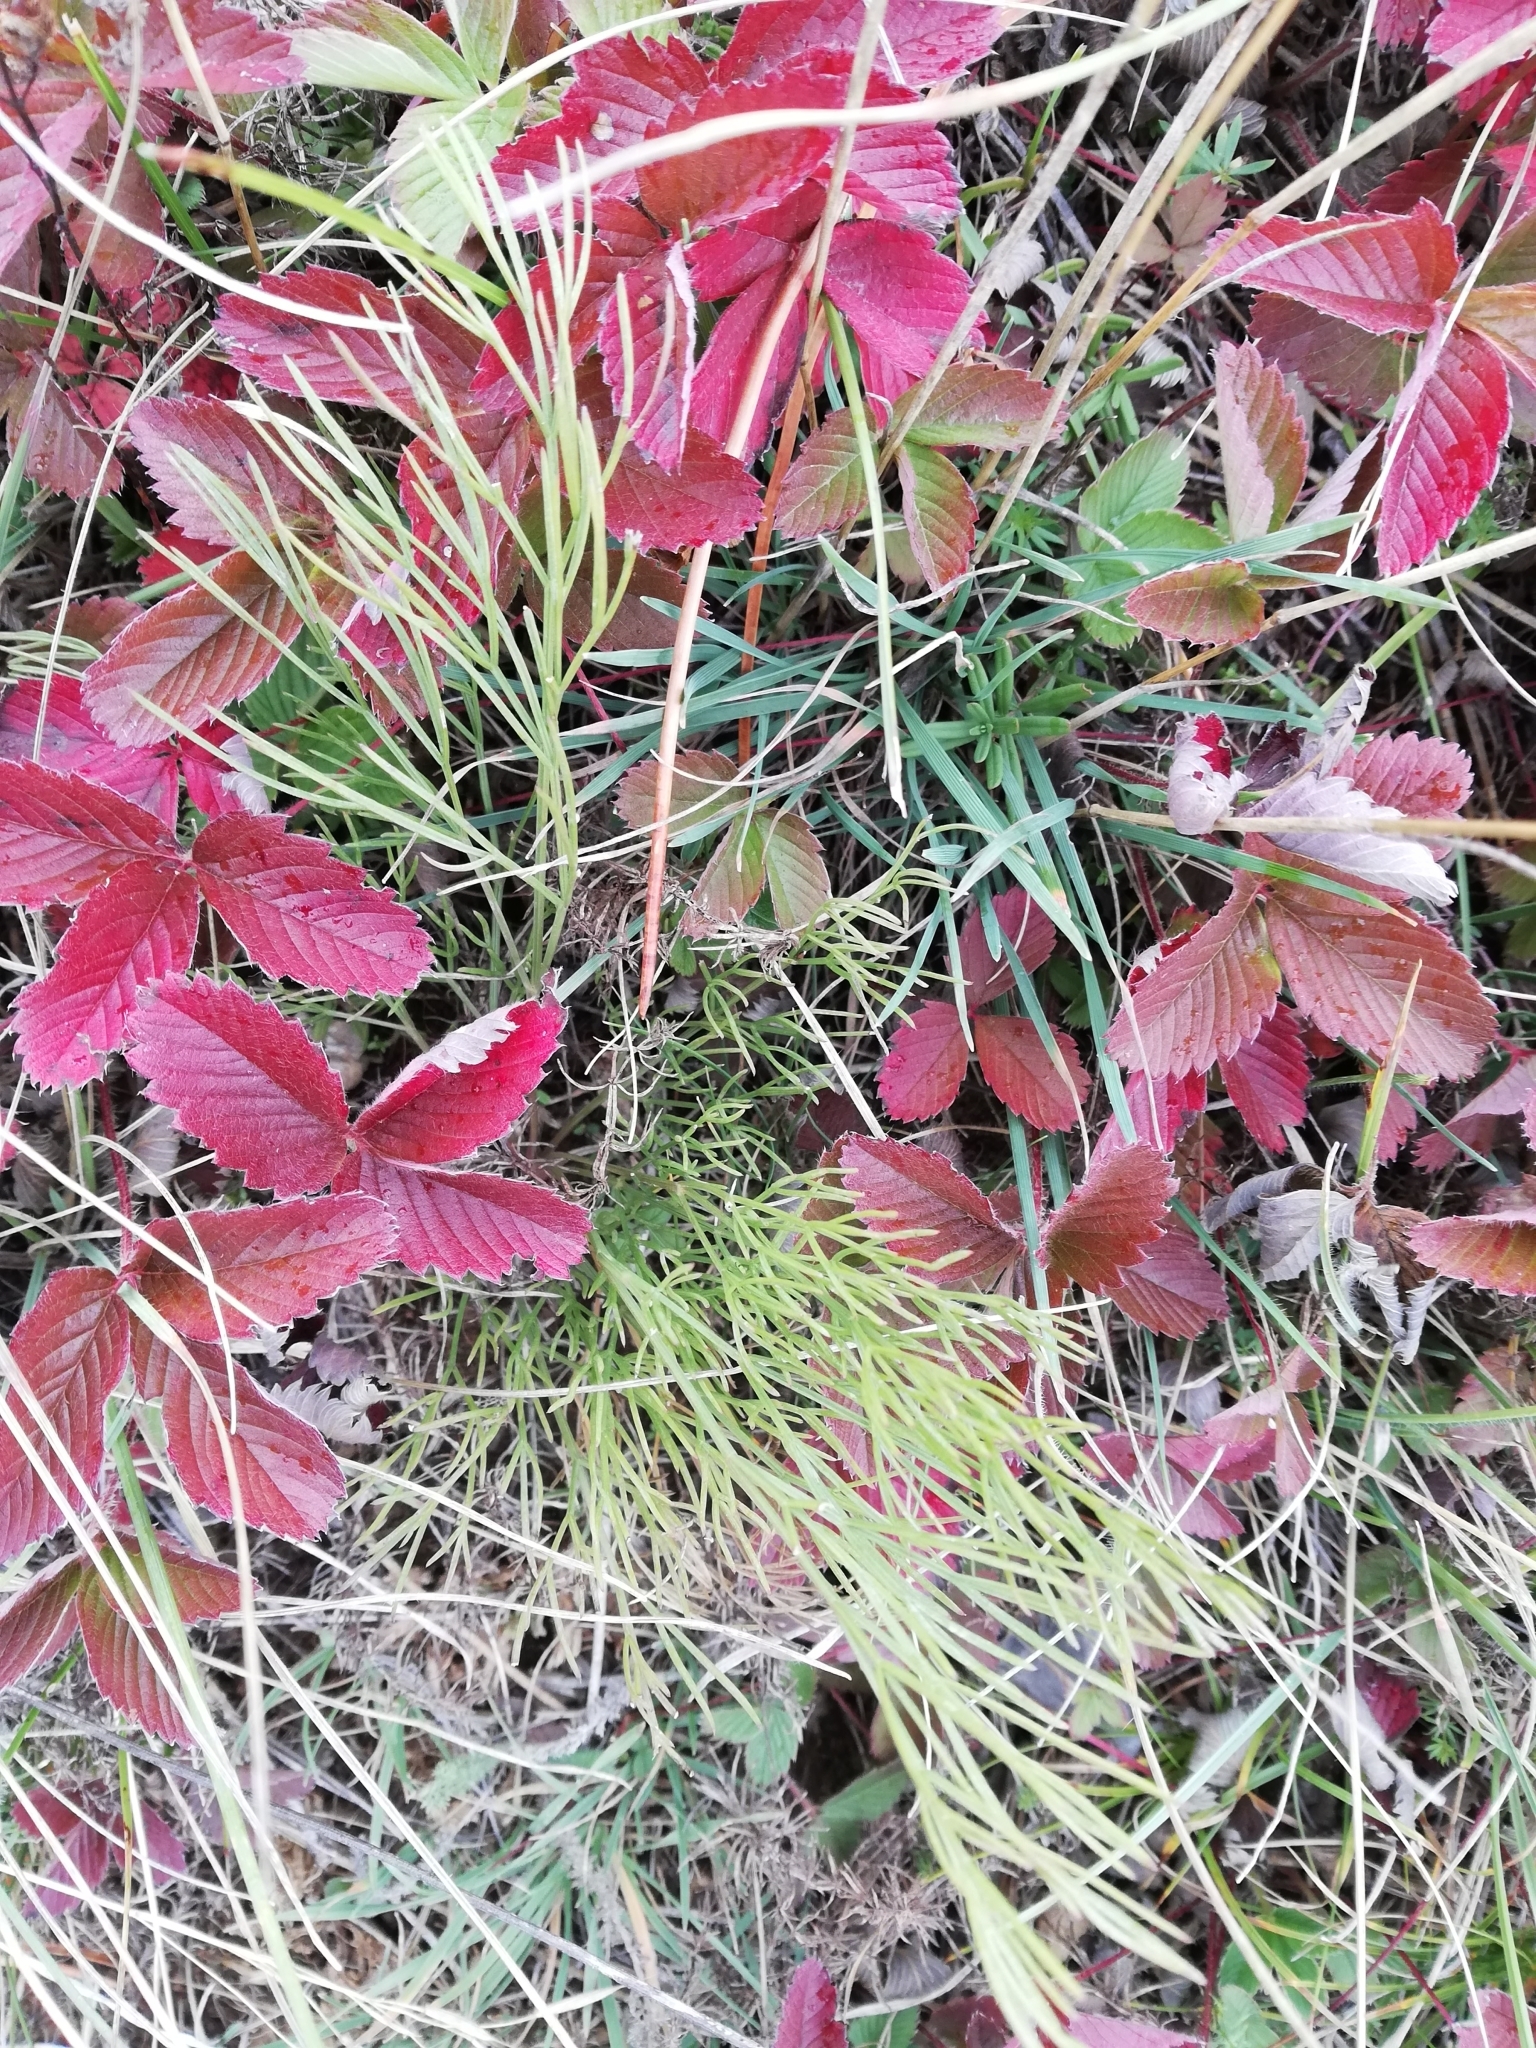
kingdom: Plantae
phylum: Tracheophyta
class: Magnoliopsida
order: Rosales
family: Rosaceae
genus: Fragaria
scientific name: Fragaria viridis
